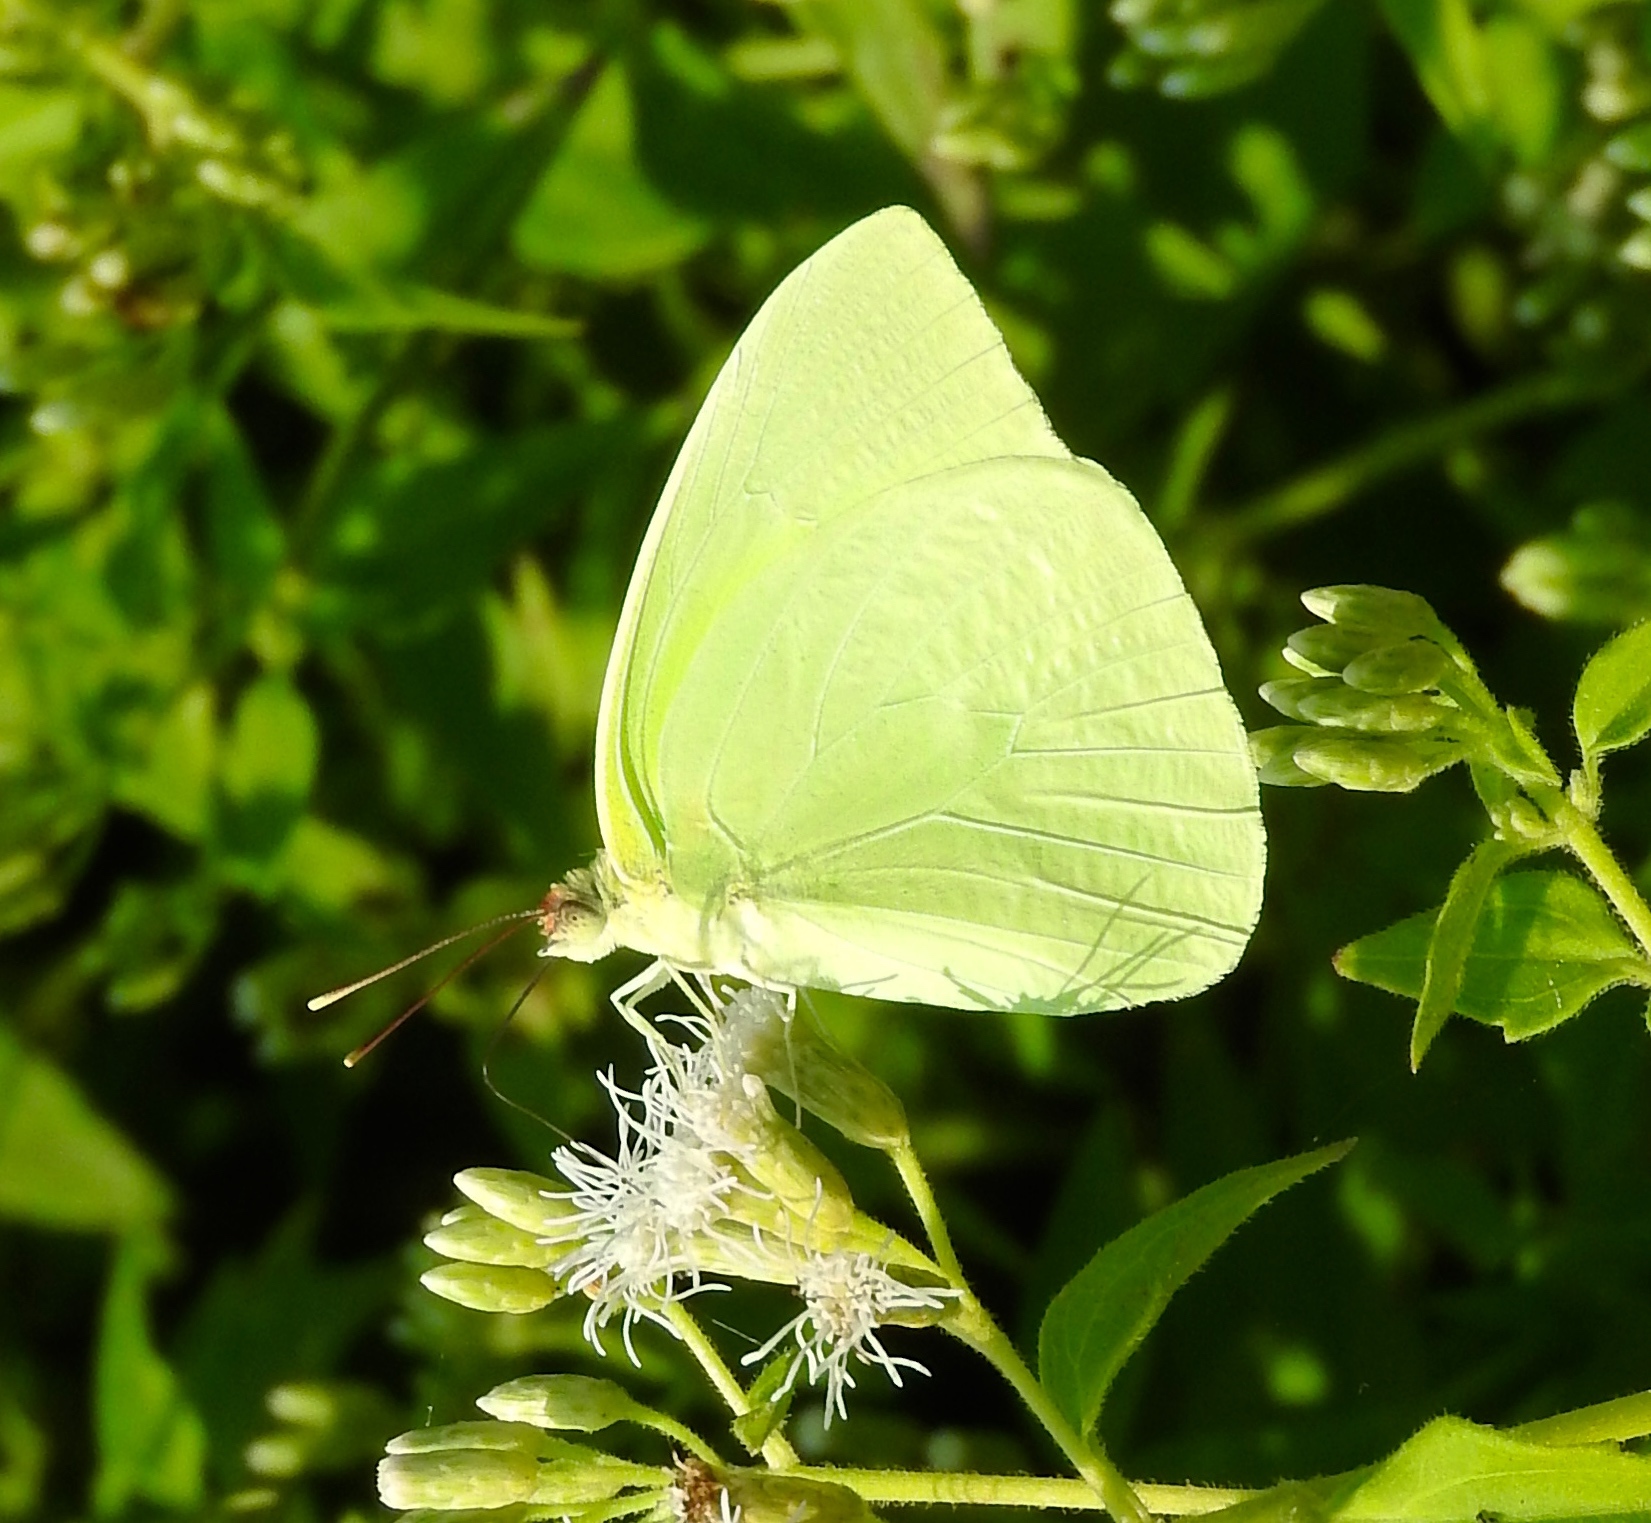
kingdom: Animalia
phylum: Arthropoda
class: Insecta
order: Lepidoptera
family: Pieridae
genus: Aphrissa
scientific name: Aphrissa statira
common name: Statira sulphur
